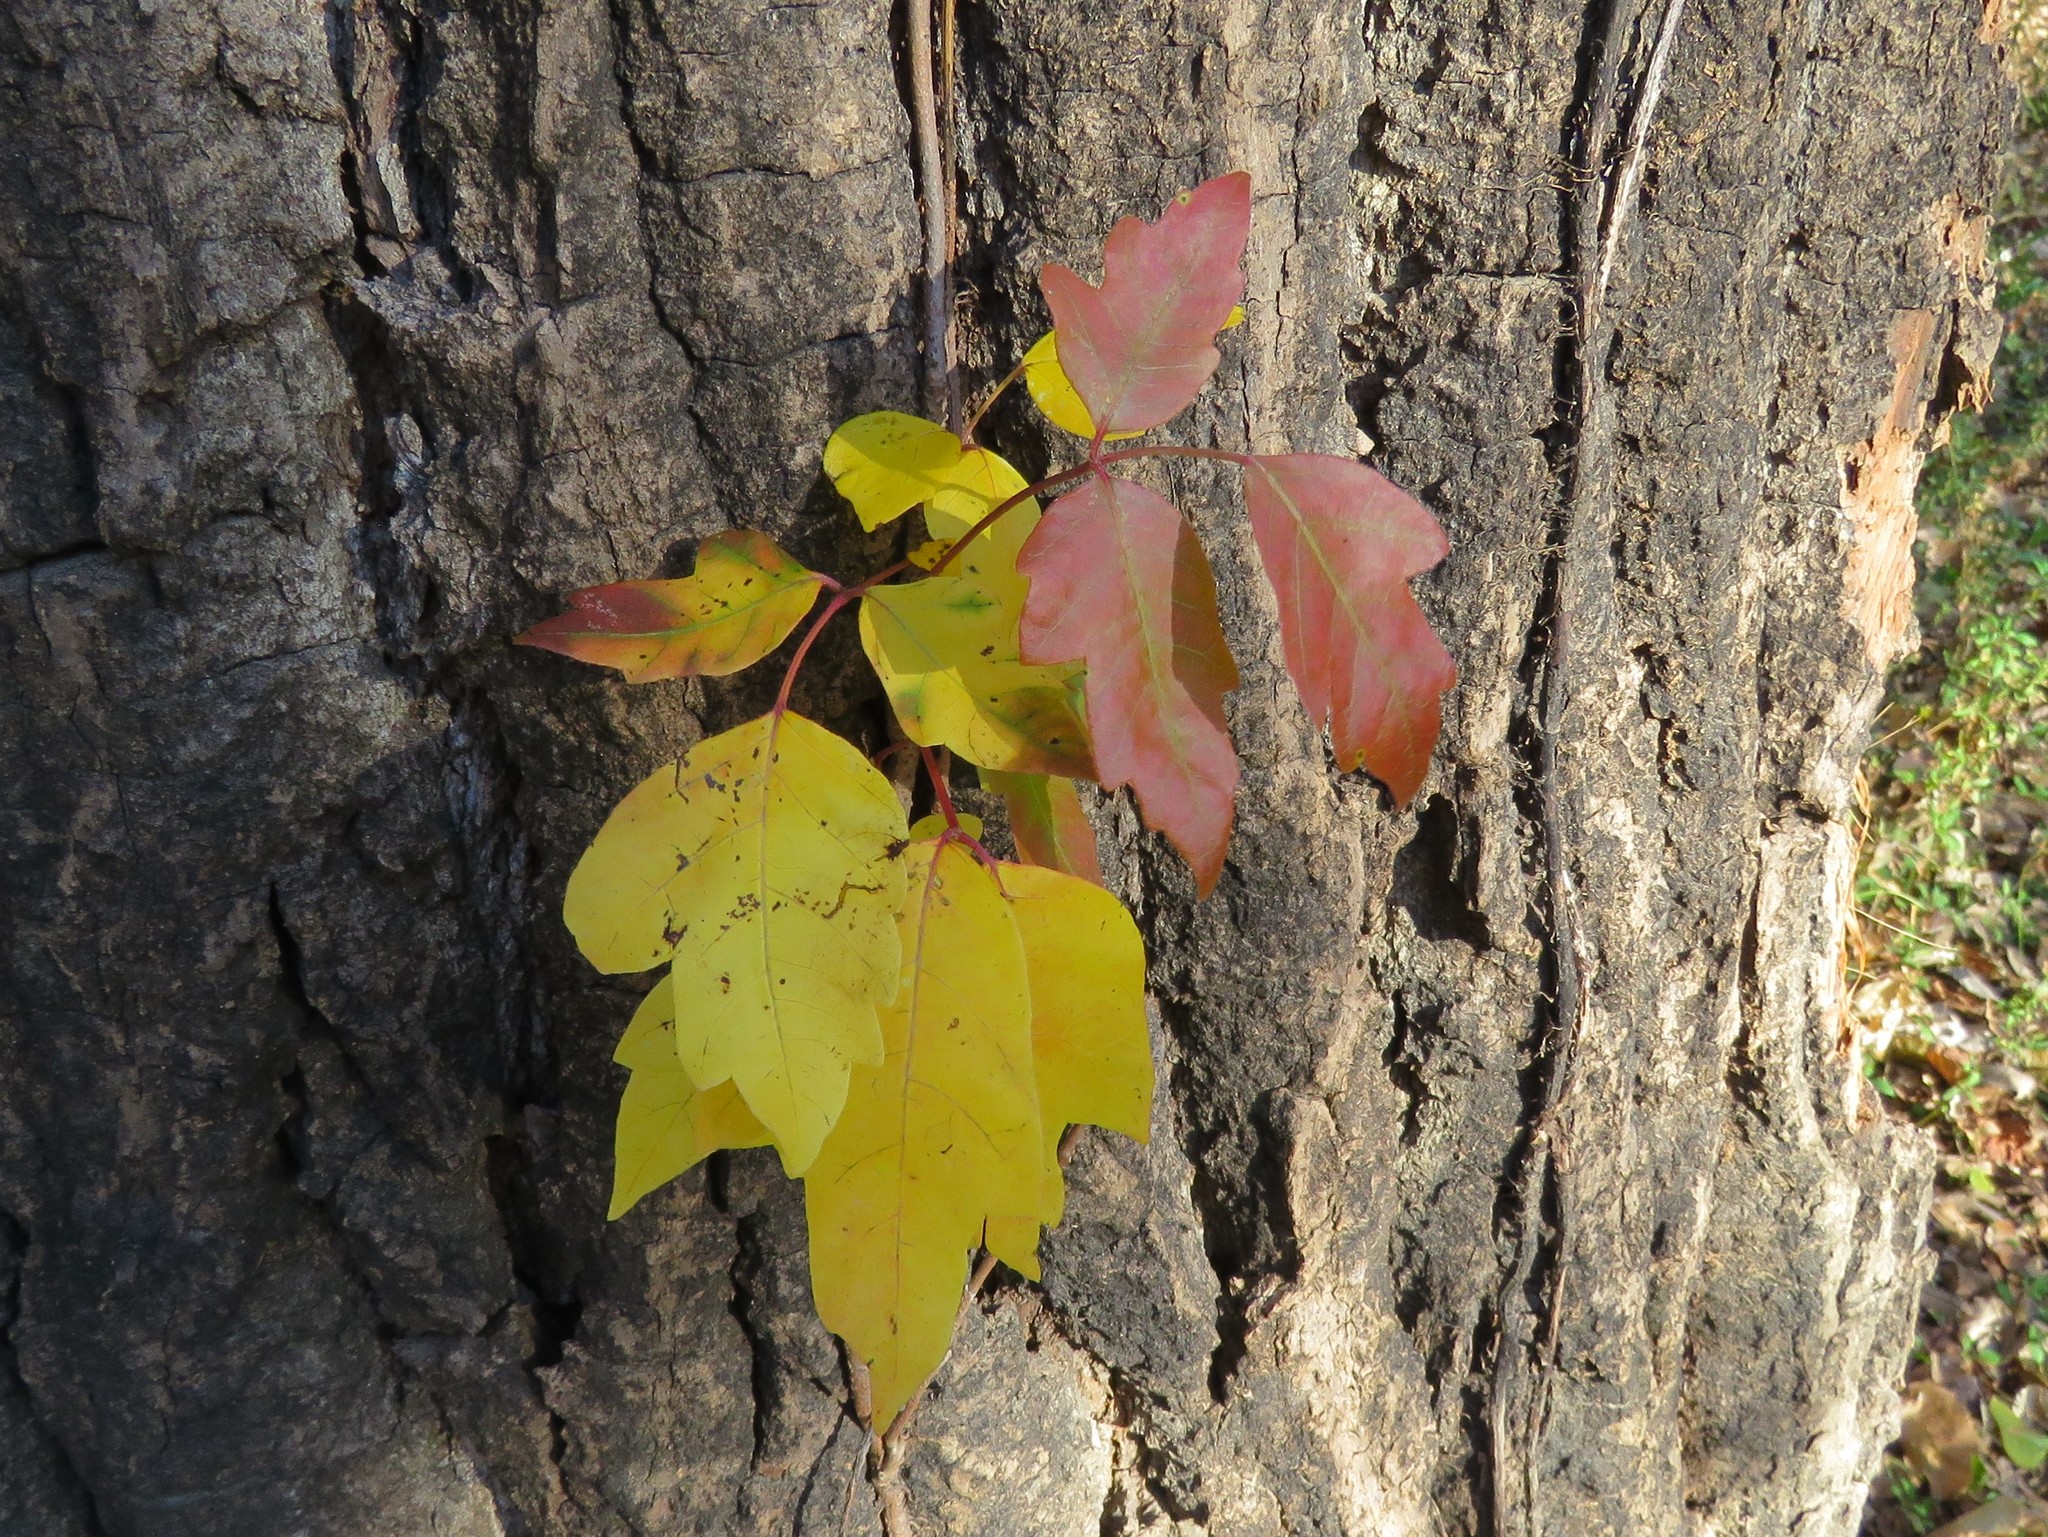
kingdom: Plantae
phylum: Tracheophyta
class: Magnoliopsida
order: Sapindales
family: Anacardiaceae
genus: Toxicodendron
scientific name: Toxicodendron radicans
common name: Poison ivy
